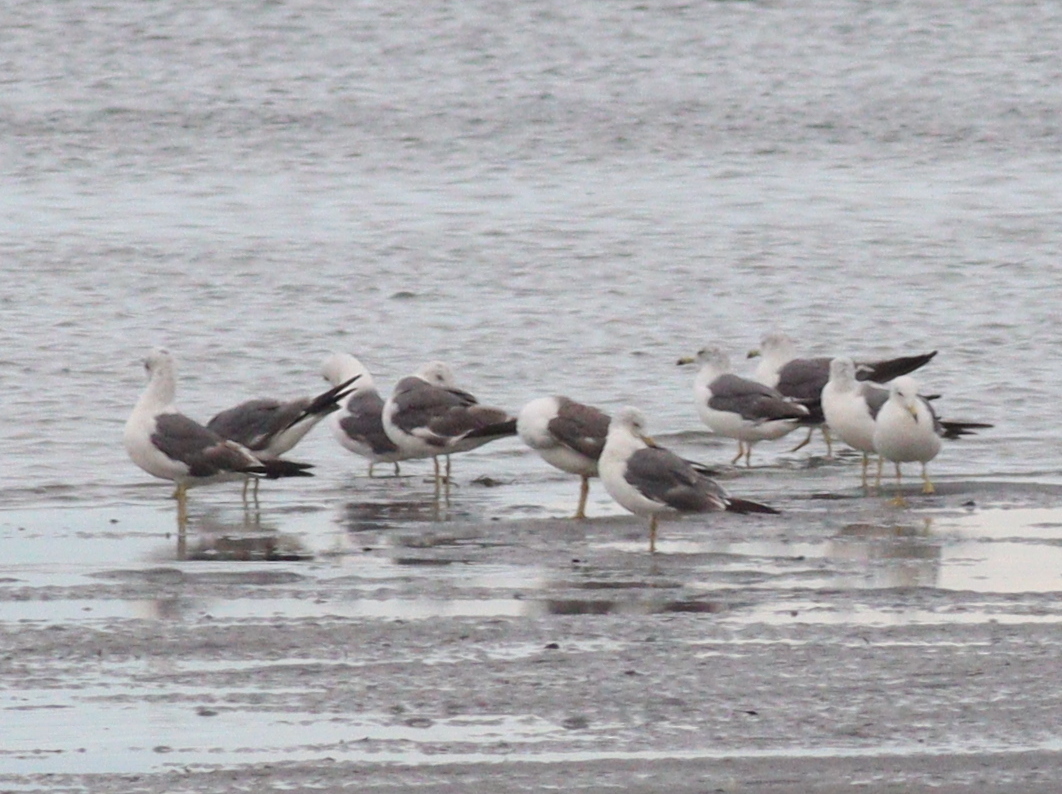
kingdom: Animalia
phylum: Chordata
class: Aves
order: Charadriiformes
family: Laridae
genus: Larus
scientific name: Larus crassirostris
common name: Black-tailed gull
